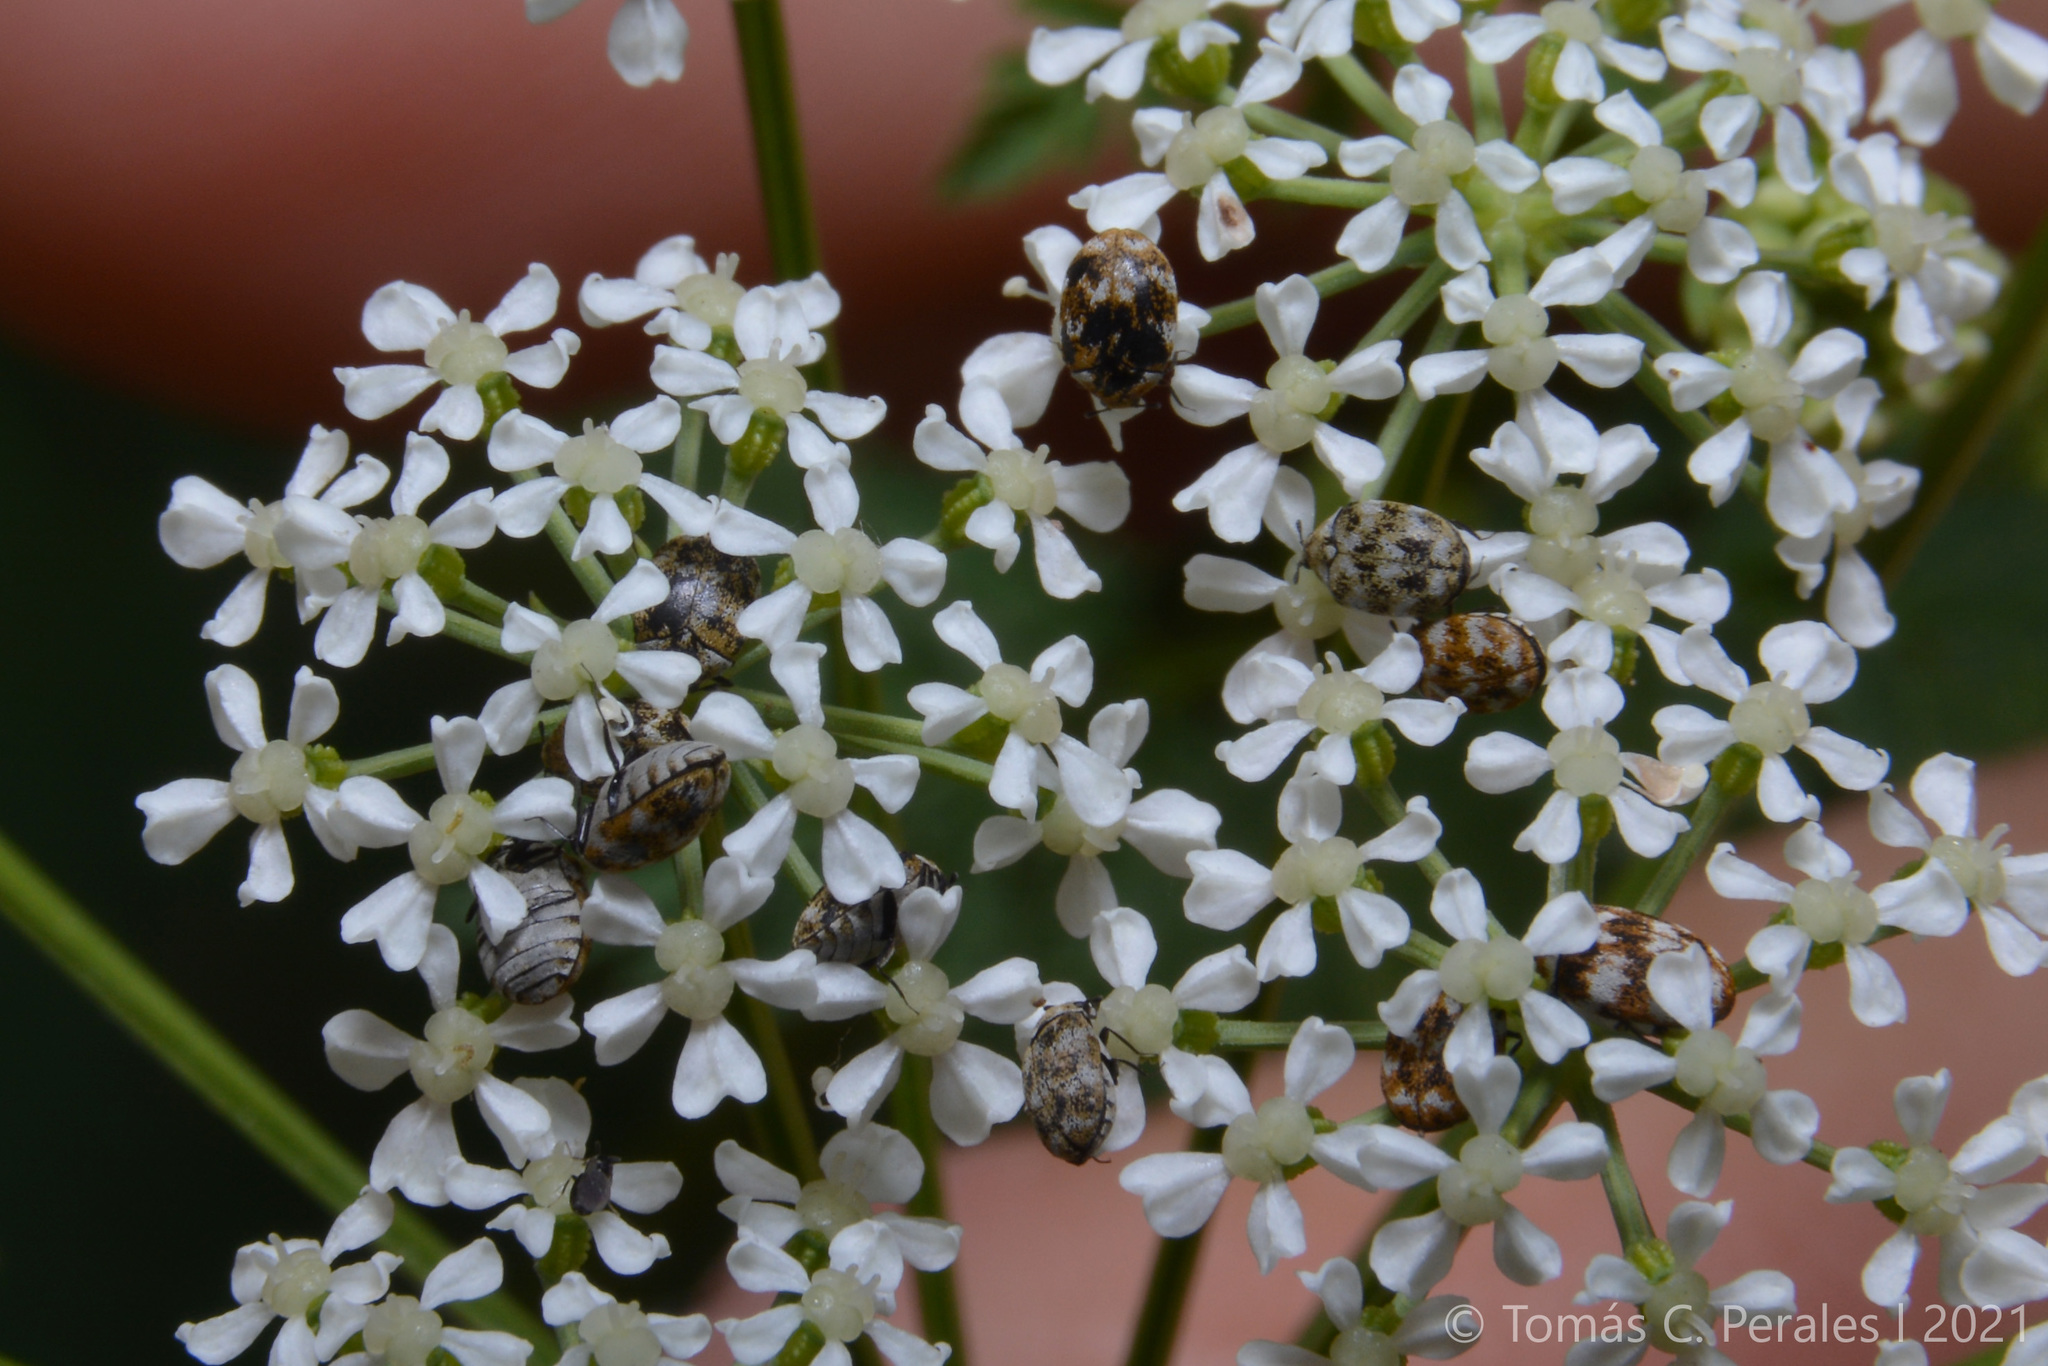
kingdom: Animalia
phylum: Arthropoda
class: Insecta
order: Coleoptera
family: Dermestidae
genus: Anthrenus
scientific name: Anthrenus verbasci
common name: Varied carpet beetle
